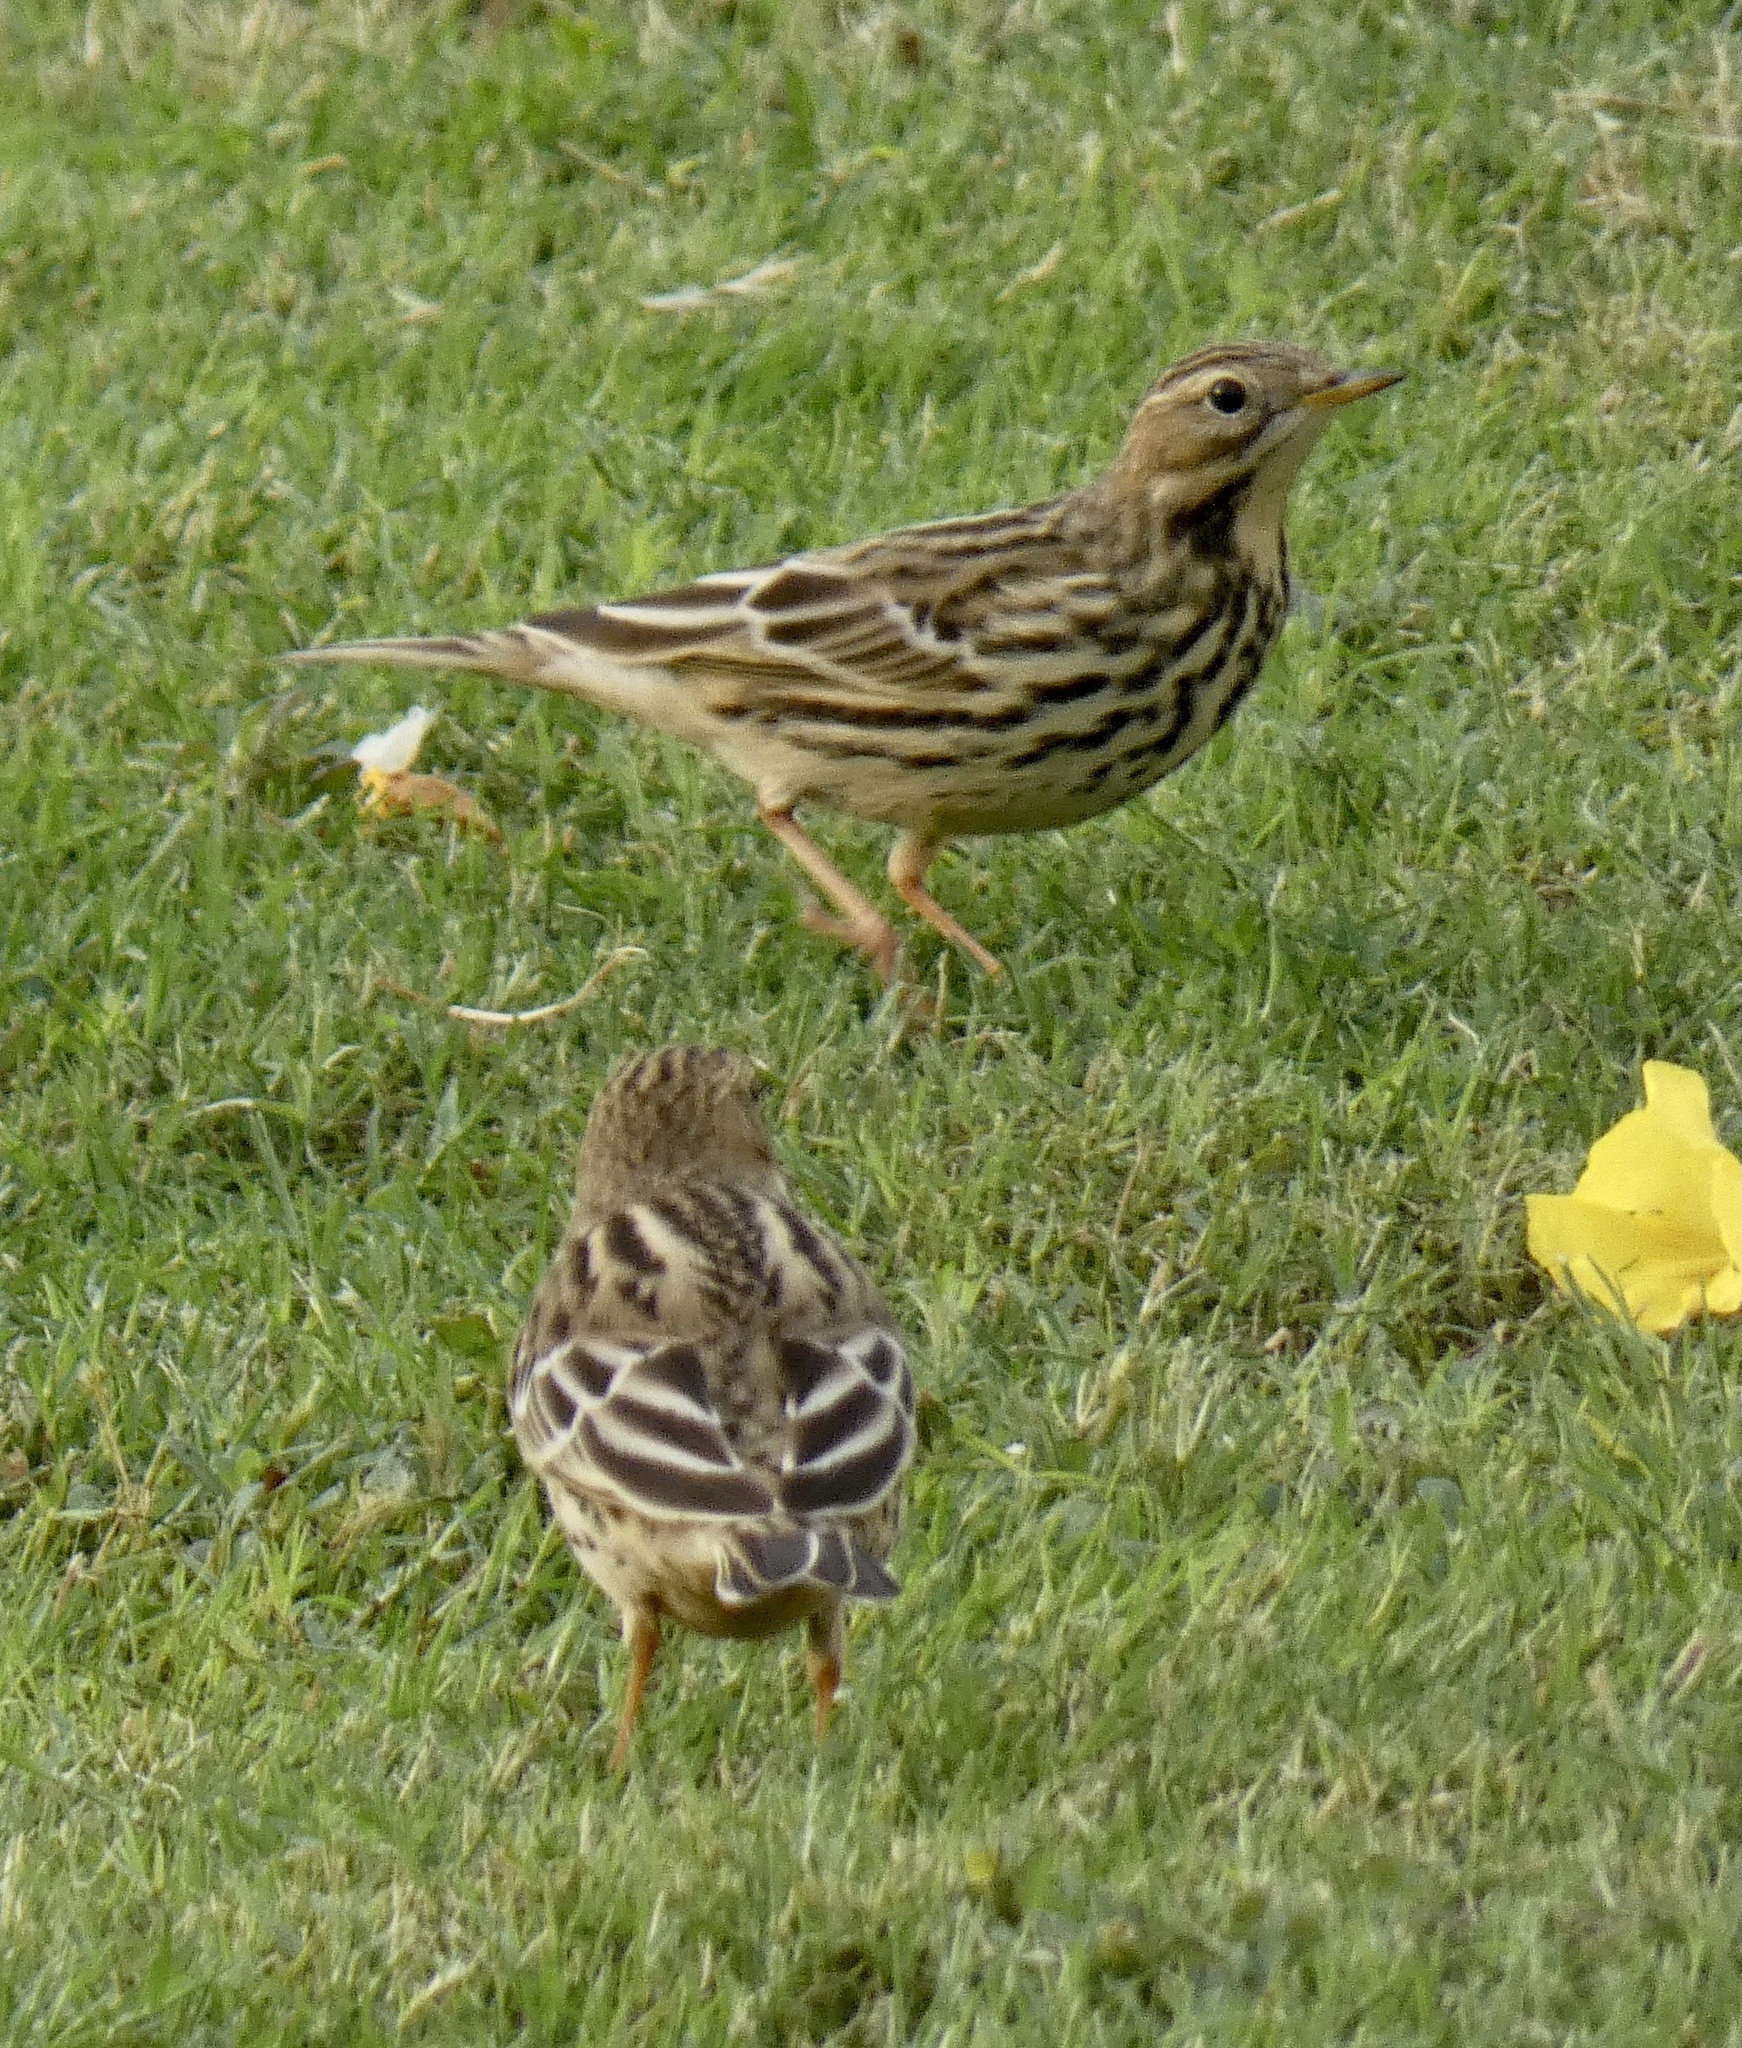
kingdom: Animalia
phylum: Chordata
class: Aves
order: Passeriformes
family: Motacillidae
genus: Anthus
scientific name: Anthus cervinus
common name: Red-throated pipit
